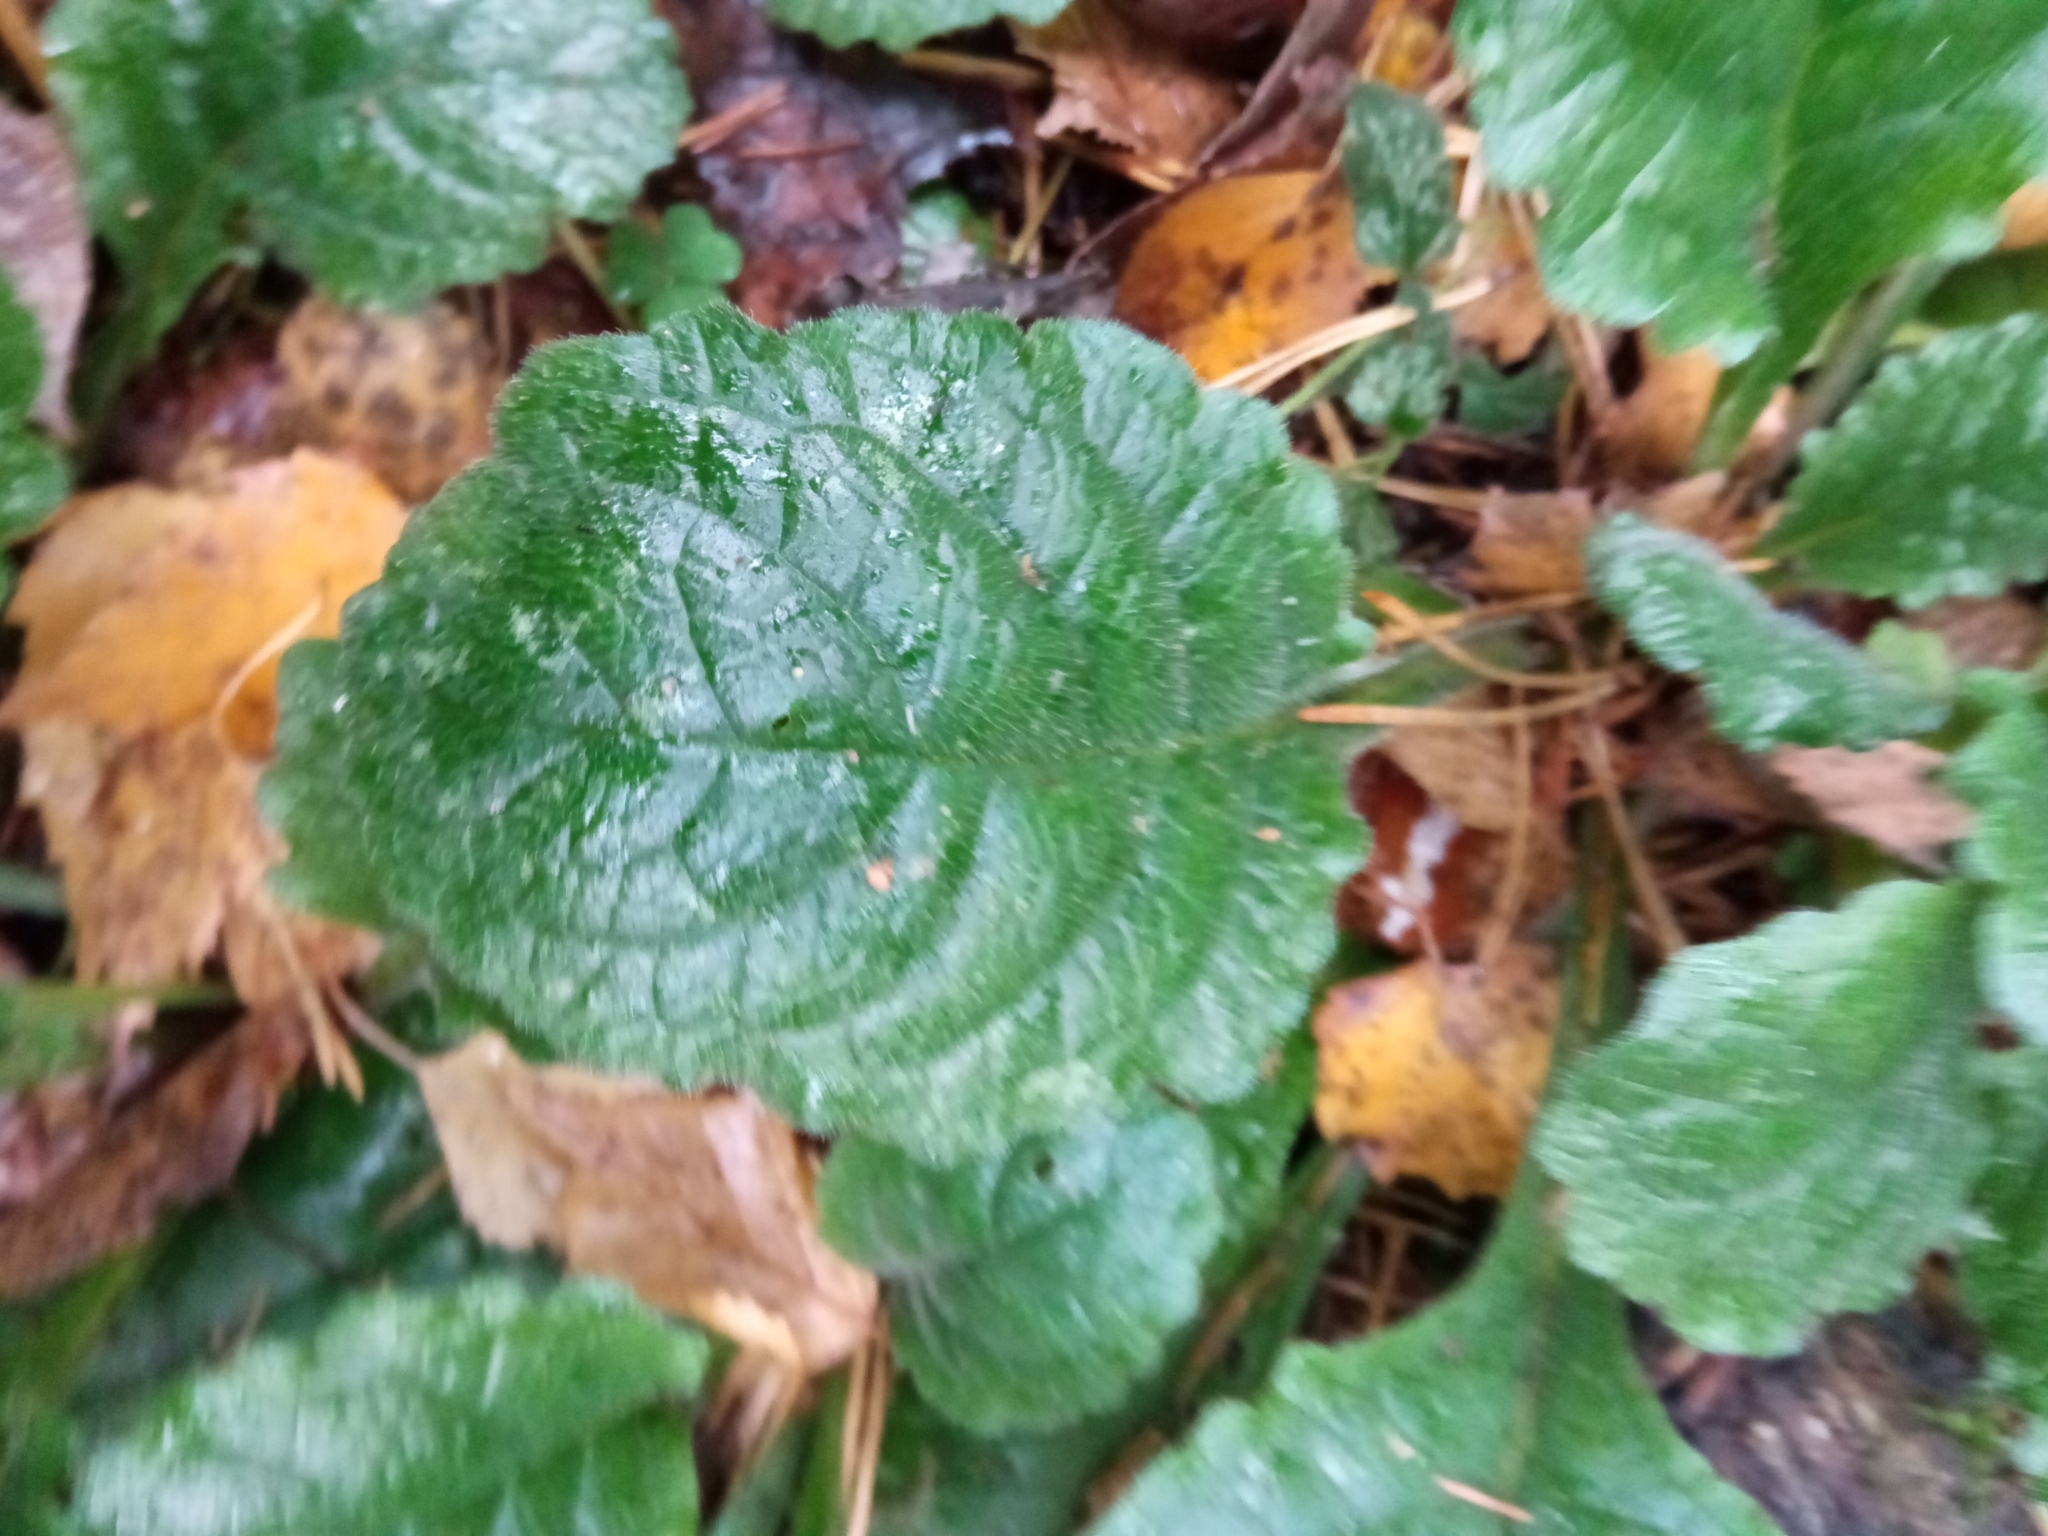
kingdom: Plantae
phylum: Tracheophyta
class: Magnoliopsida
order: Lamiales
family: Lamiaceae
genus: Ajuga
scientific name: Ajuga reptans
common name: Bugle
